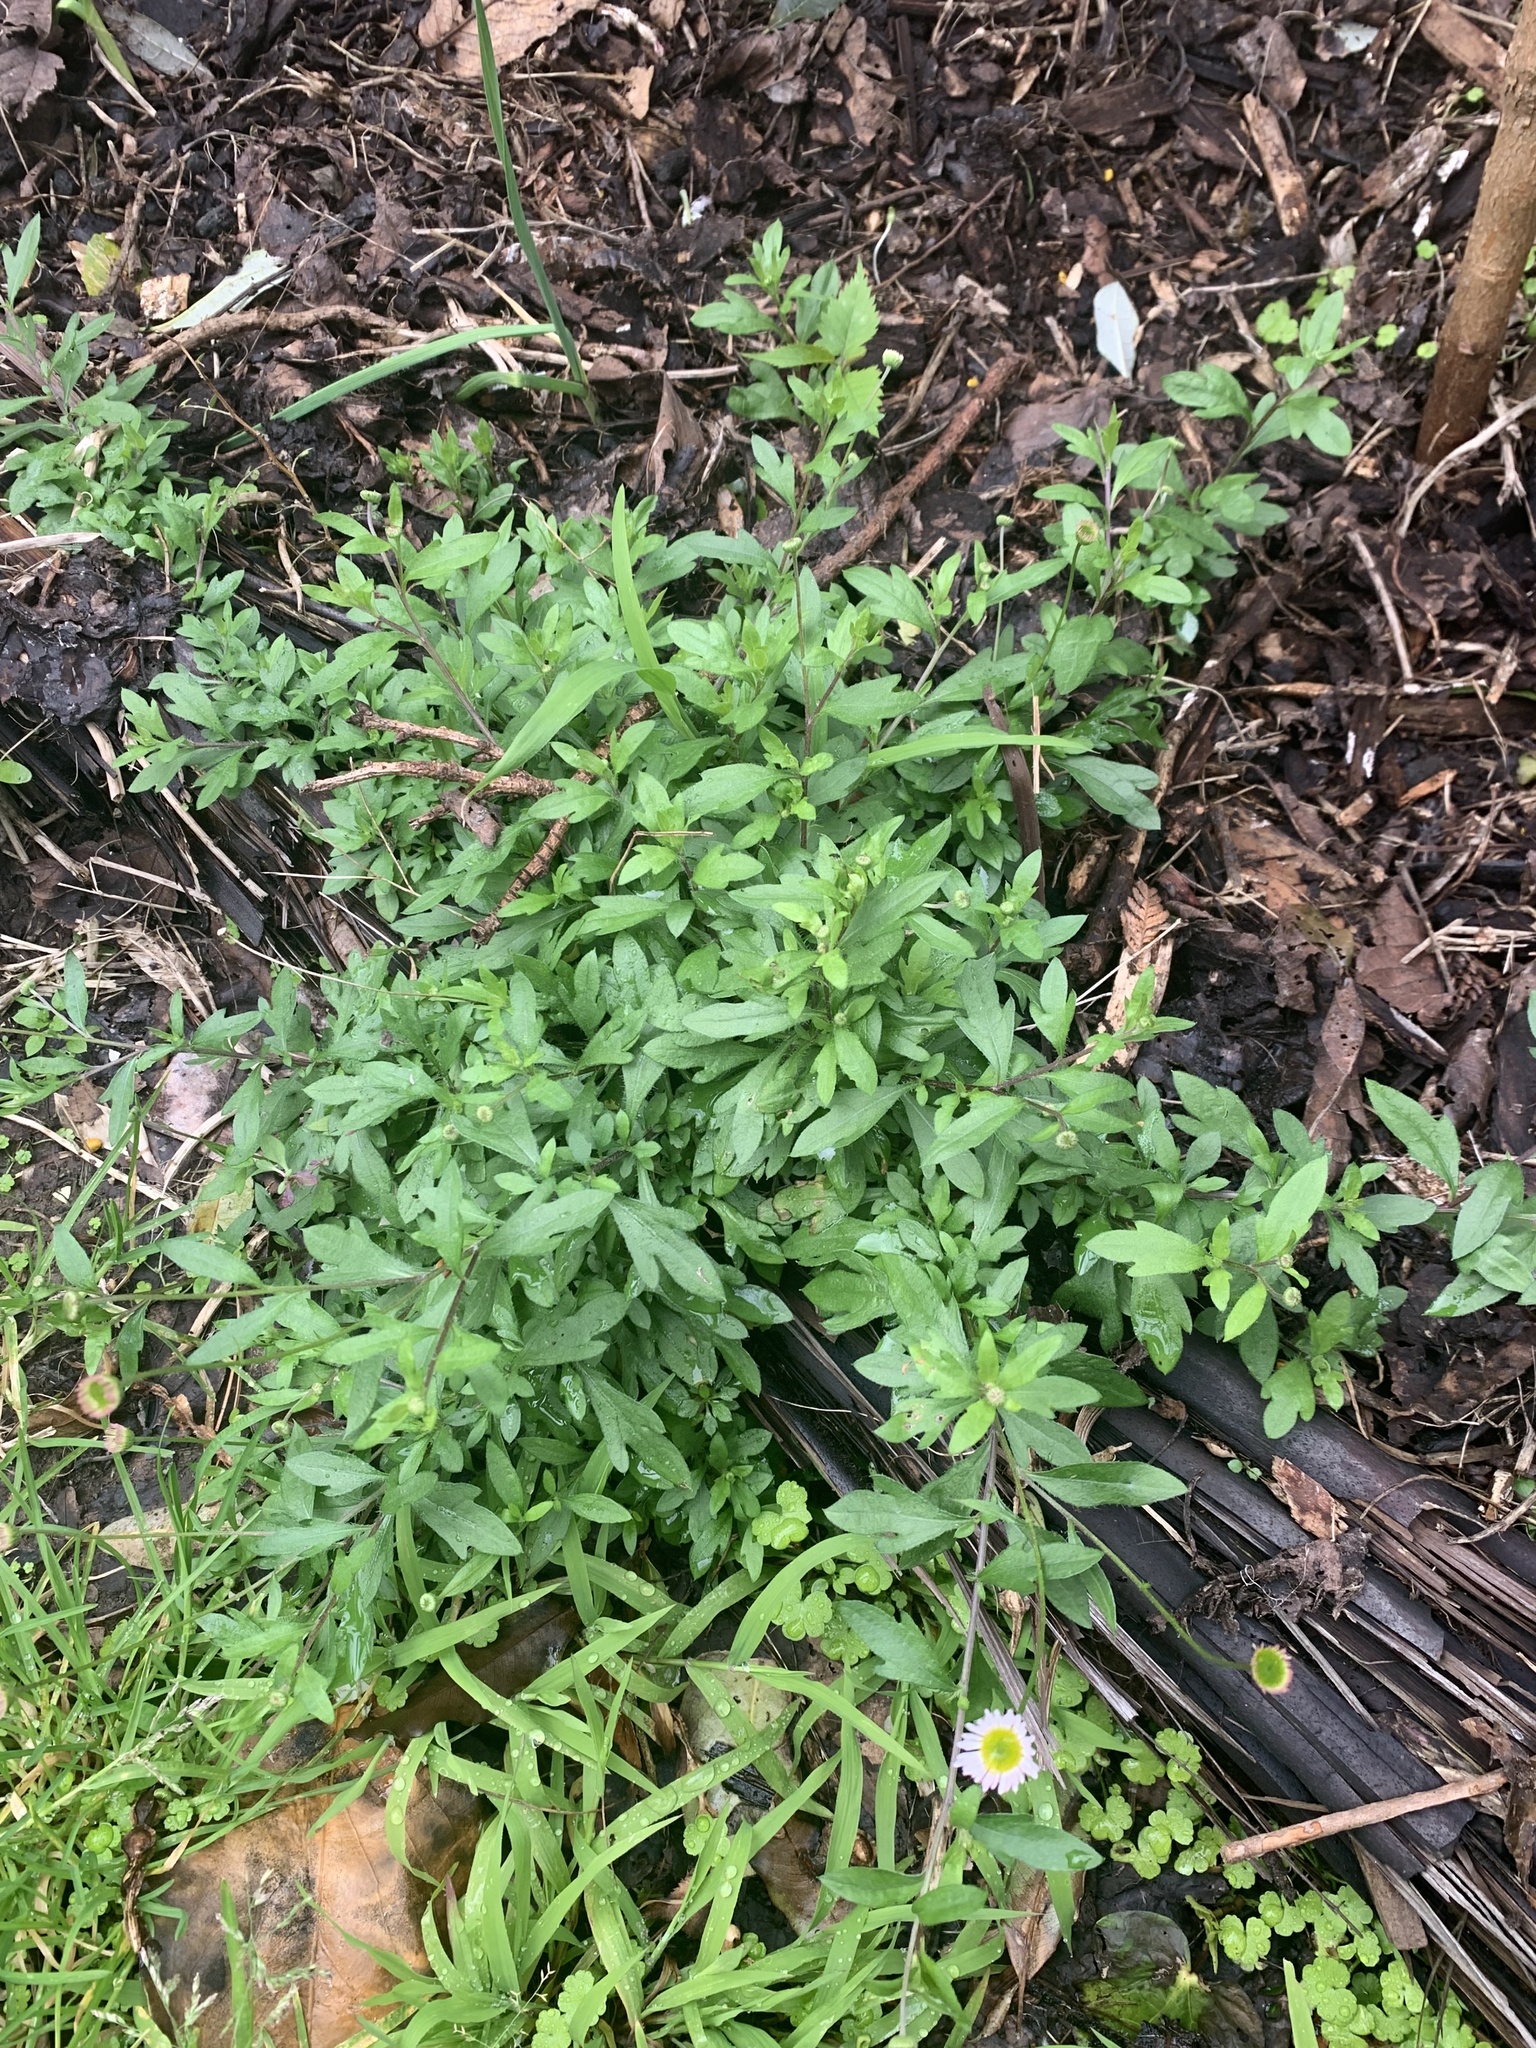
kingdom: Plantae
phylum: Tracheophyta
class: Magnoliopsida
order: Asterales
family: Asteraceae
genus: Erigeron
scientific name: Erigeron karvinskianus
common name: Mexican fleabane
